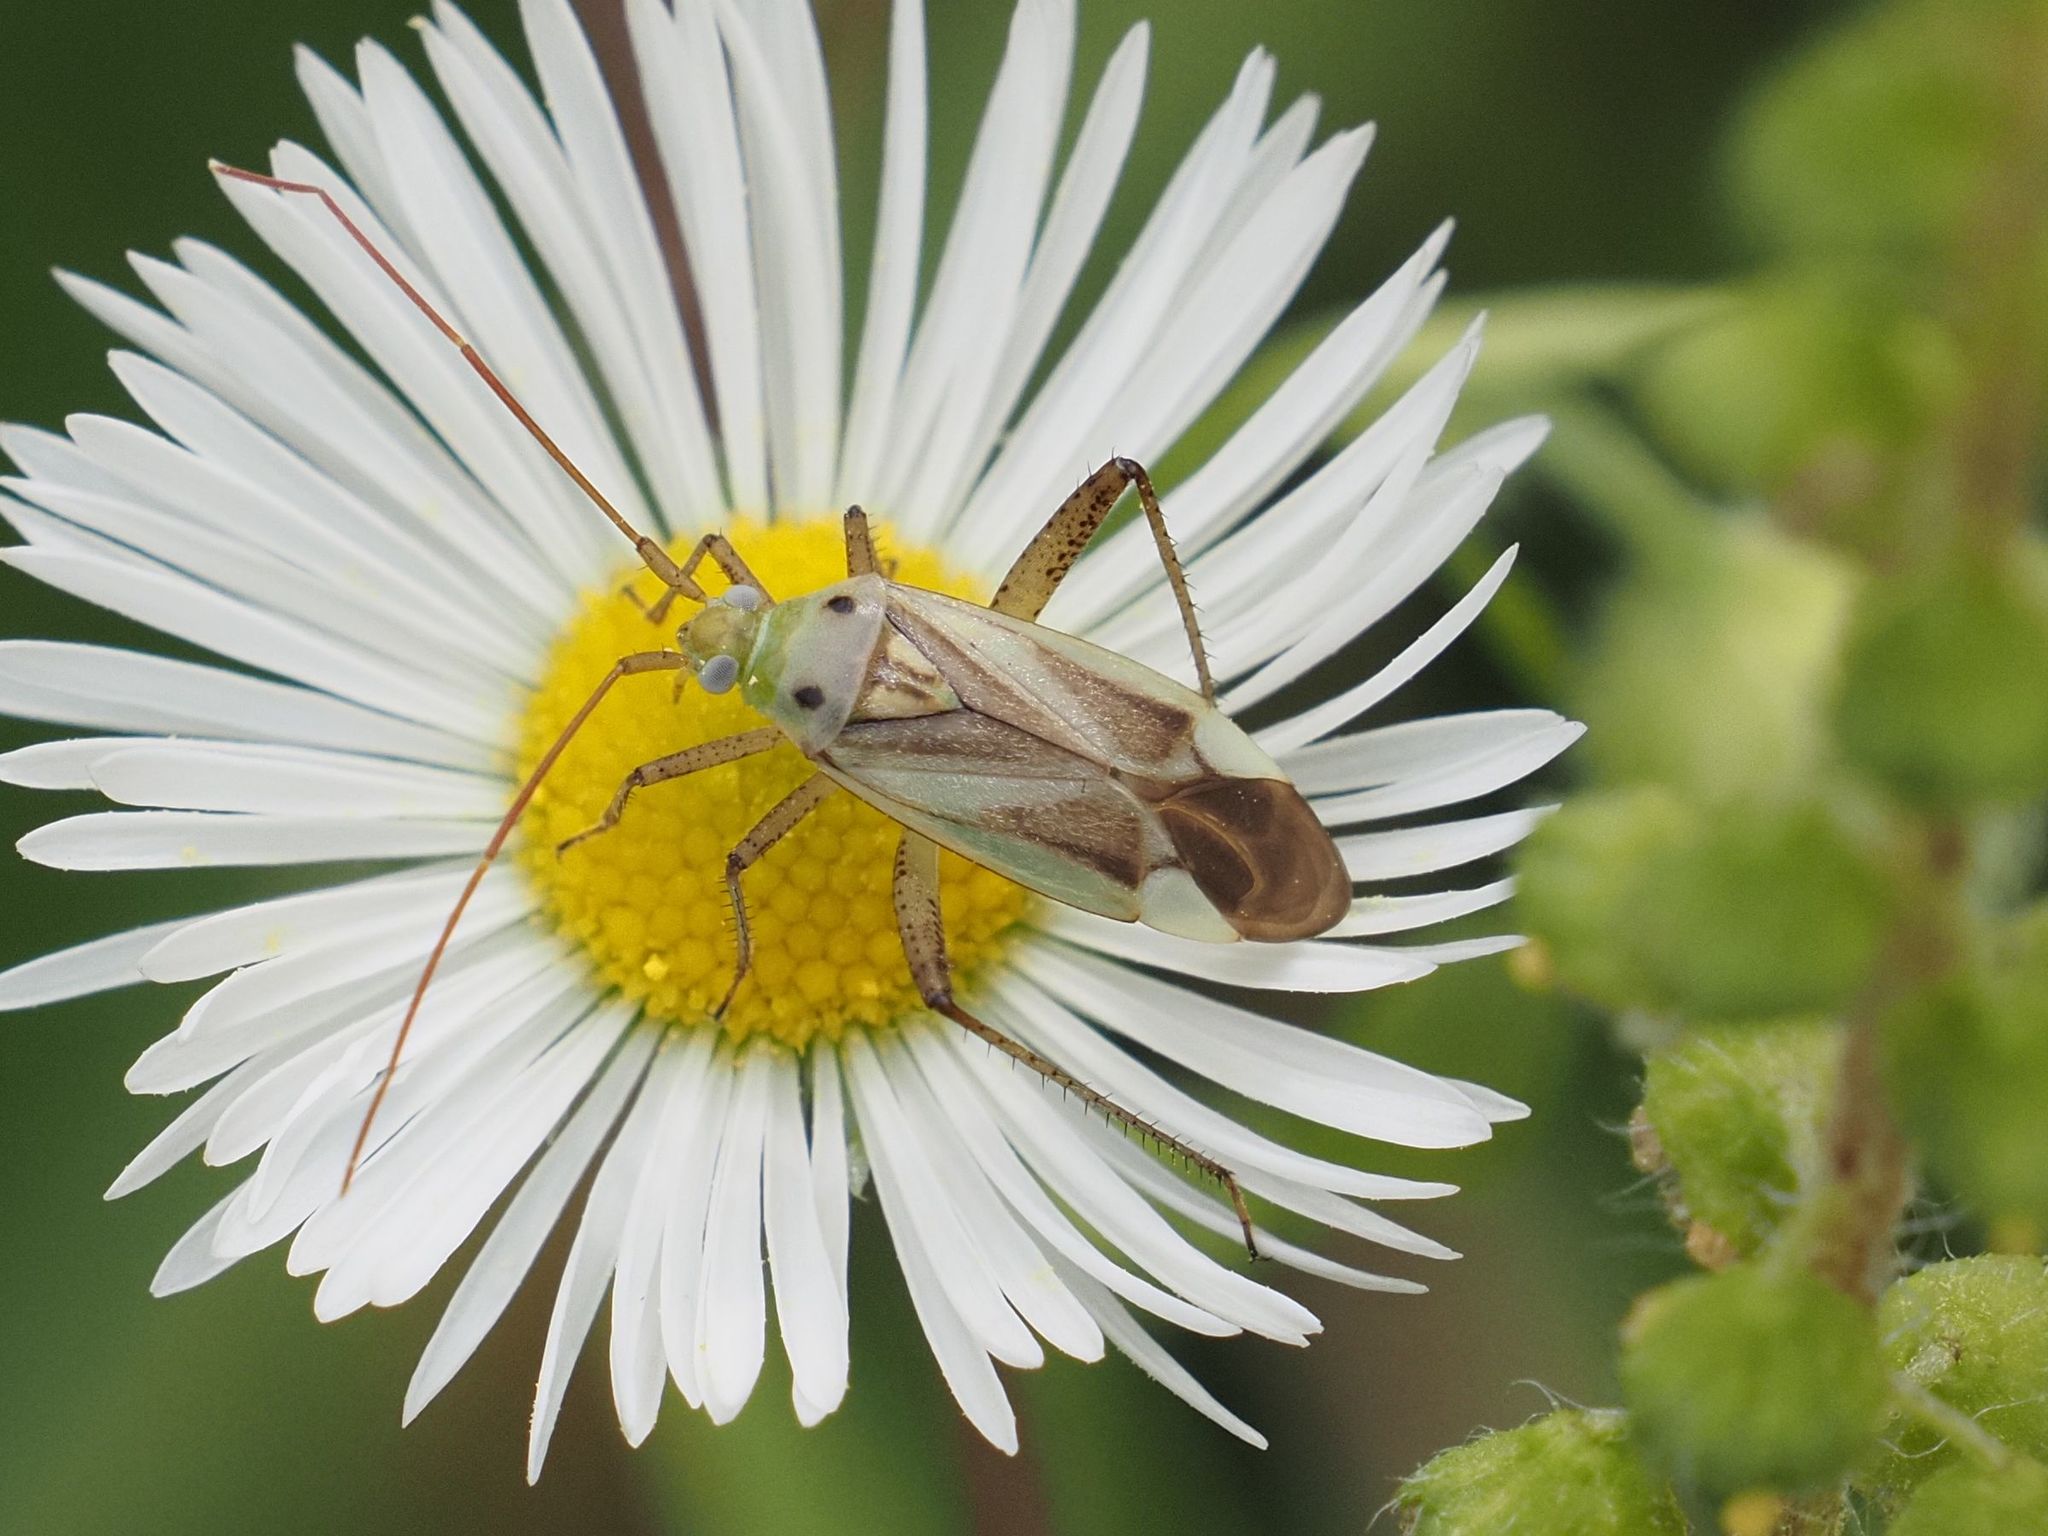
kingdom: Animalia
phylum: Arthropoda
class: Insecta
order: Hemiptera
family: Miridae
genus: Adelphocoris
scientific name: Adelphocoris lineolatus
